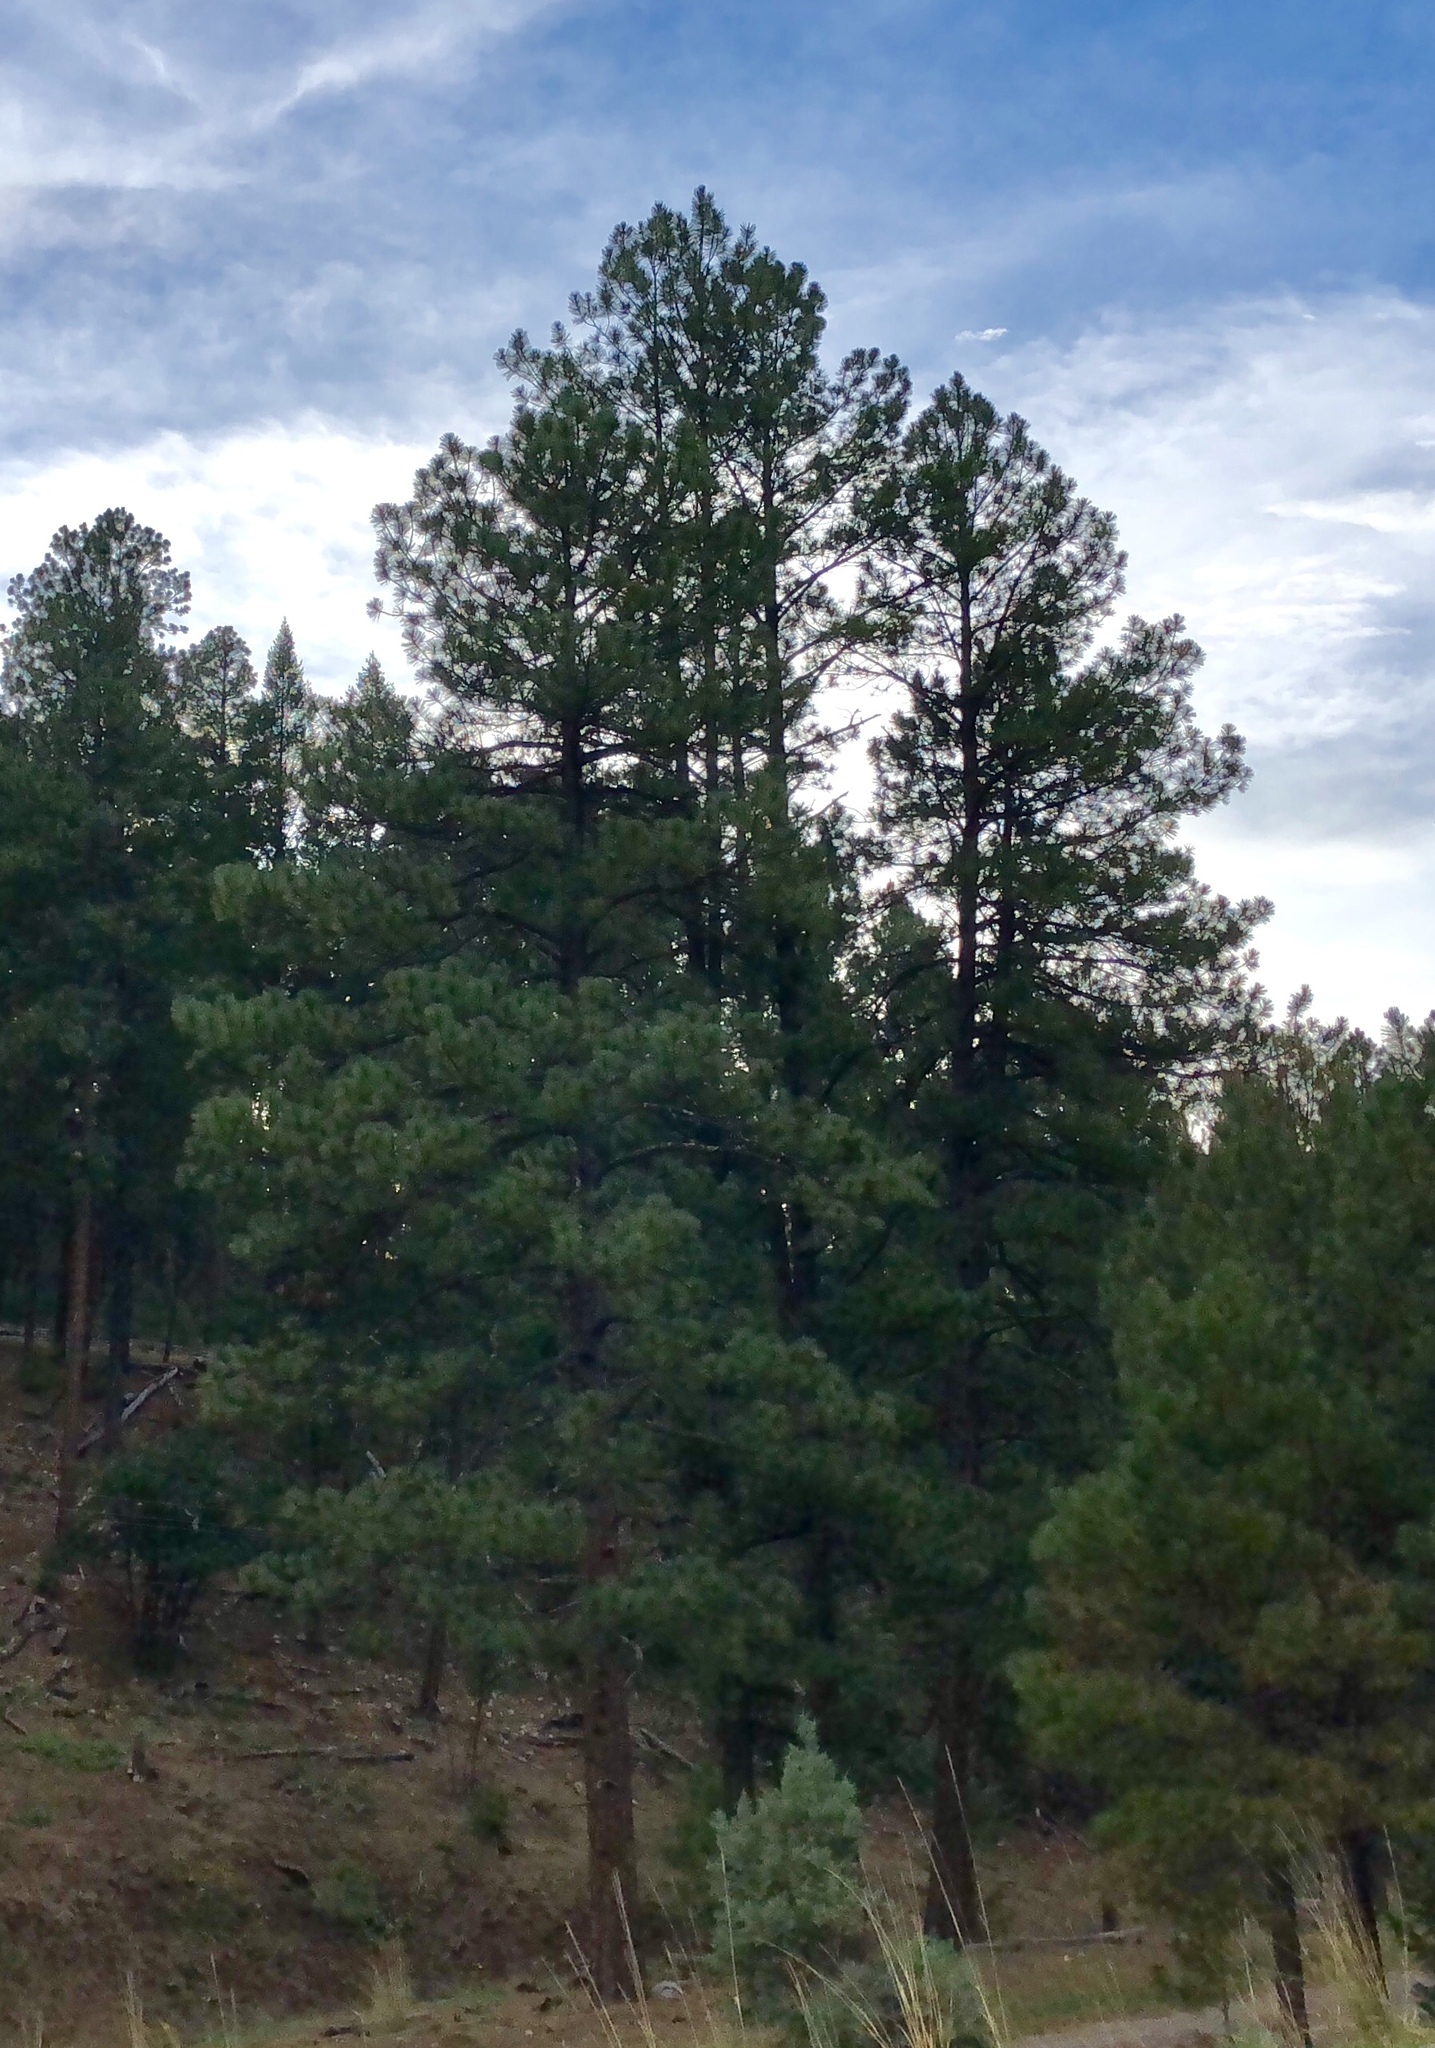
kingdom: Plantae
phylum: Tracheophyta
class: Pinopsida
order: Pinales
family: Pinaceae
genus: Pinus
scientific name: Pinus ponderosa
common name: Western yellow-pine
